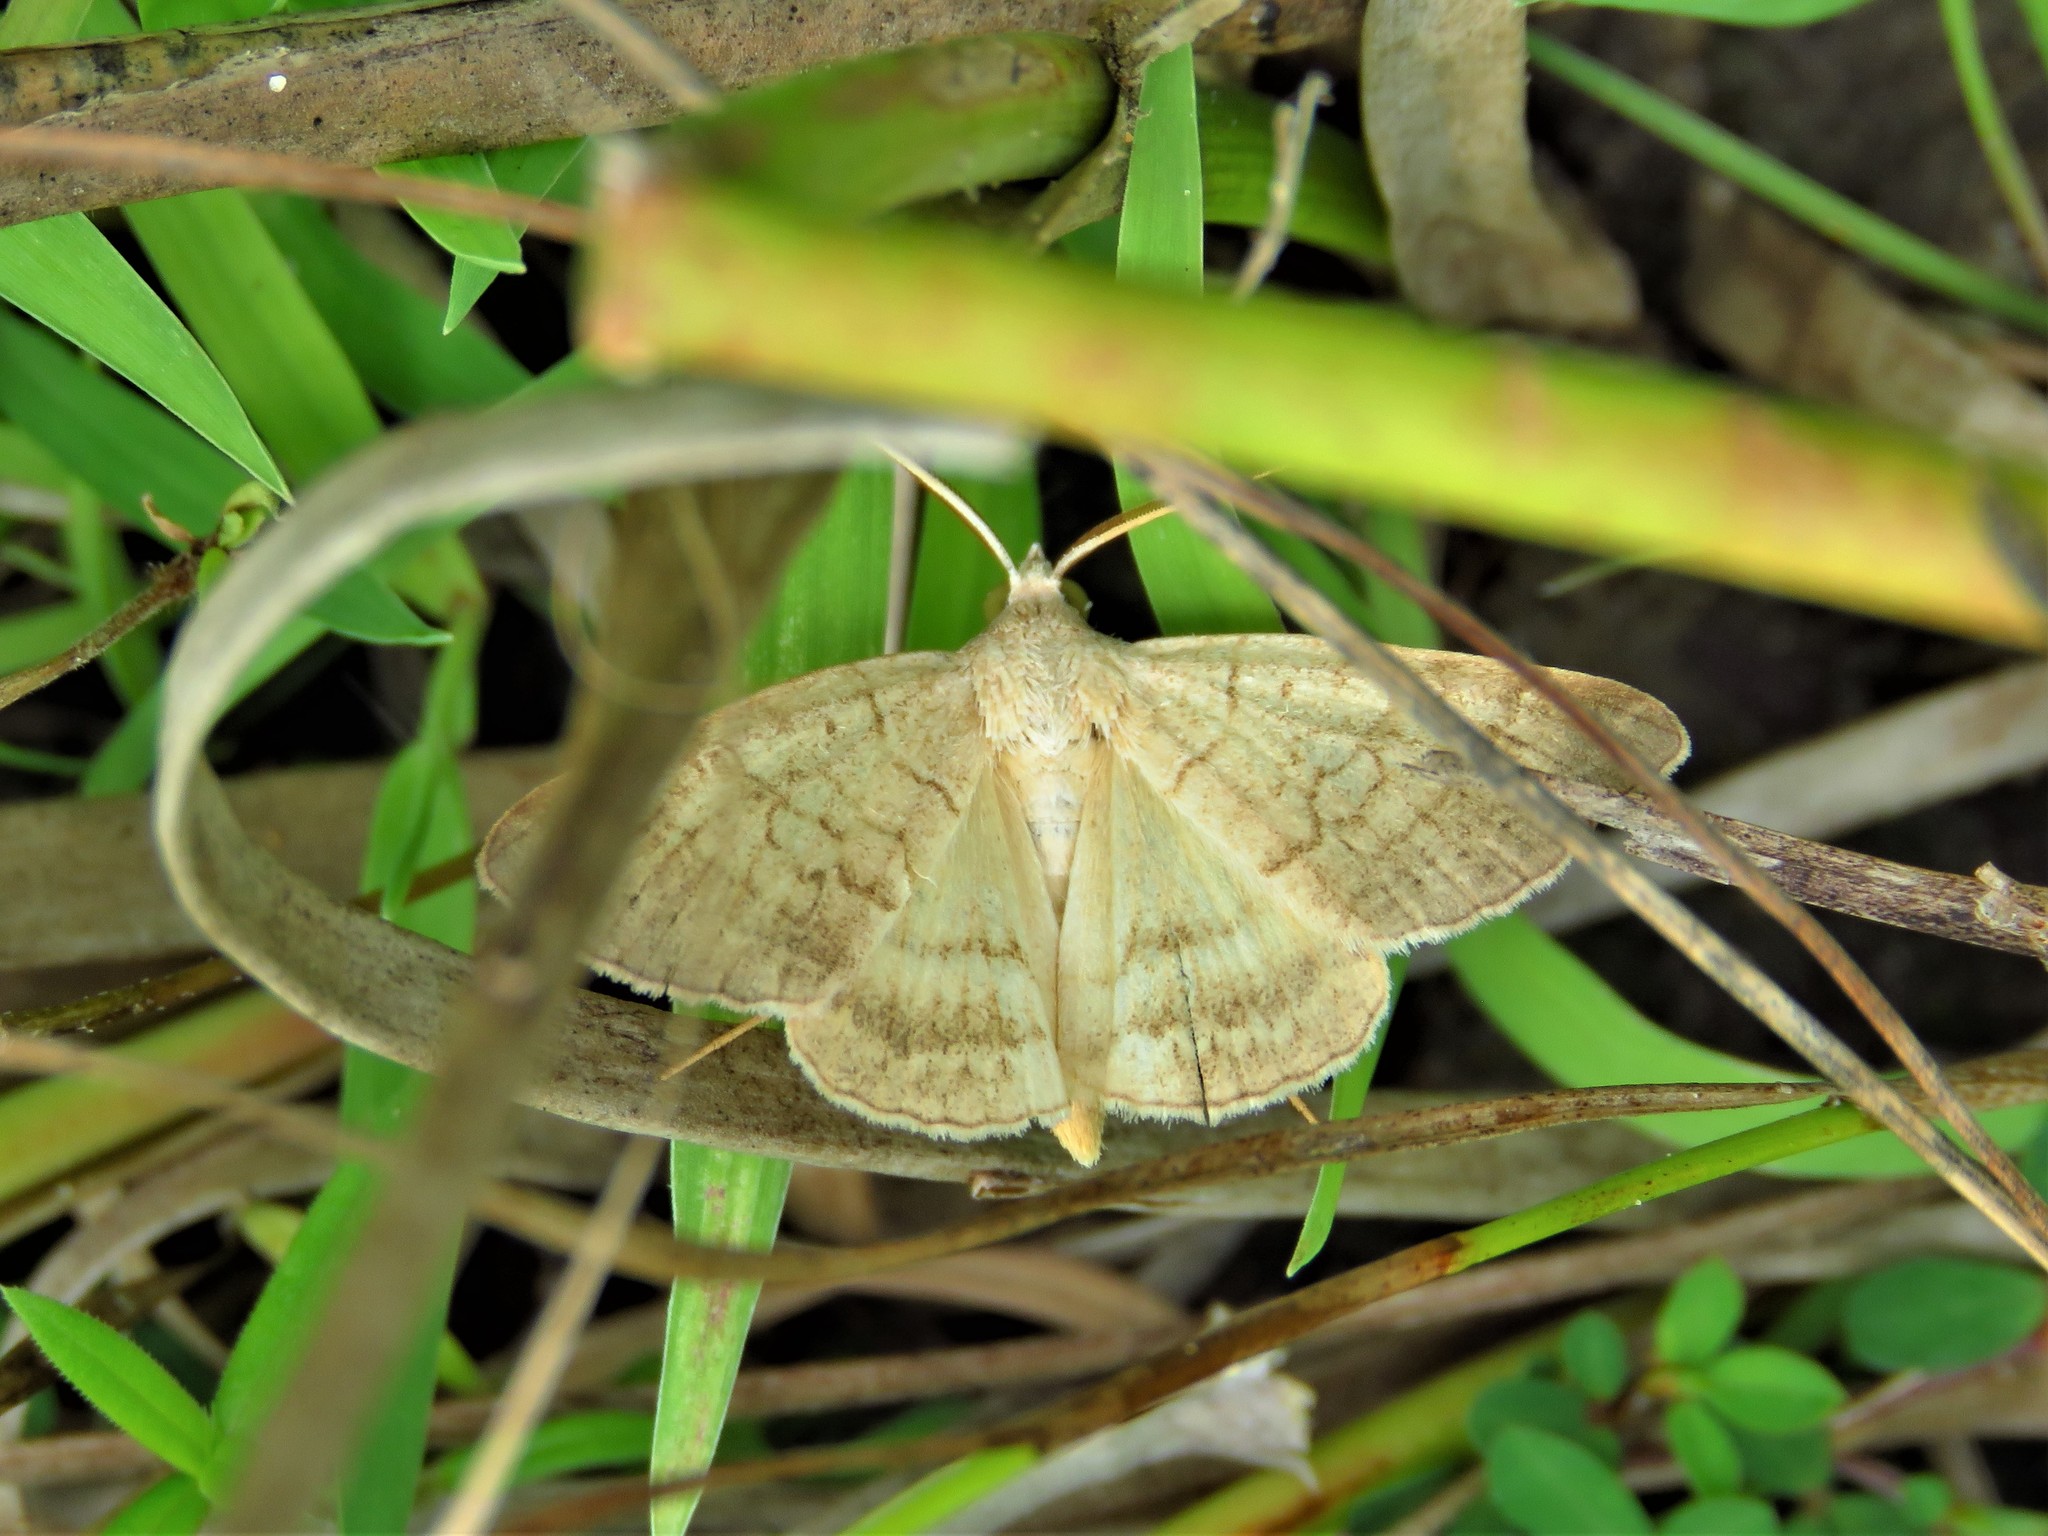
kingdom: Animalia
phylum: Arthropoda
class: Insecta
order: Lepidoptera
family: Erebidae
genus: Caenurgia
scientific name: Caenurgia chloropha
